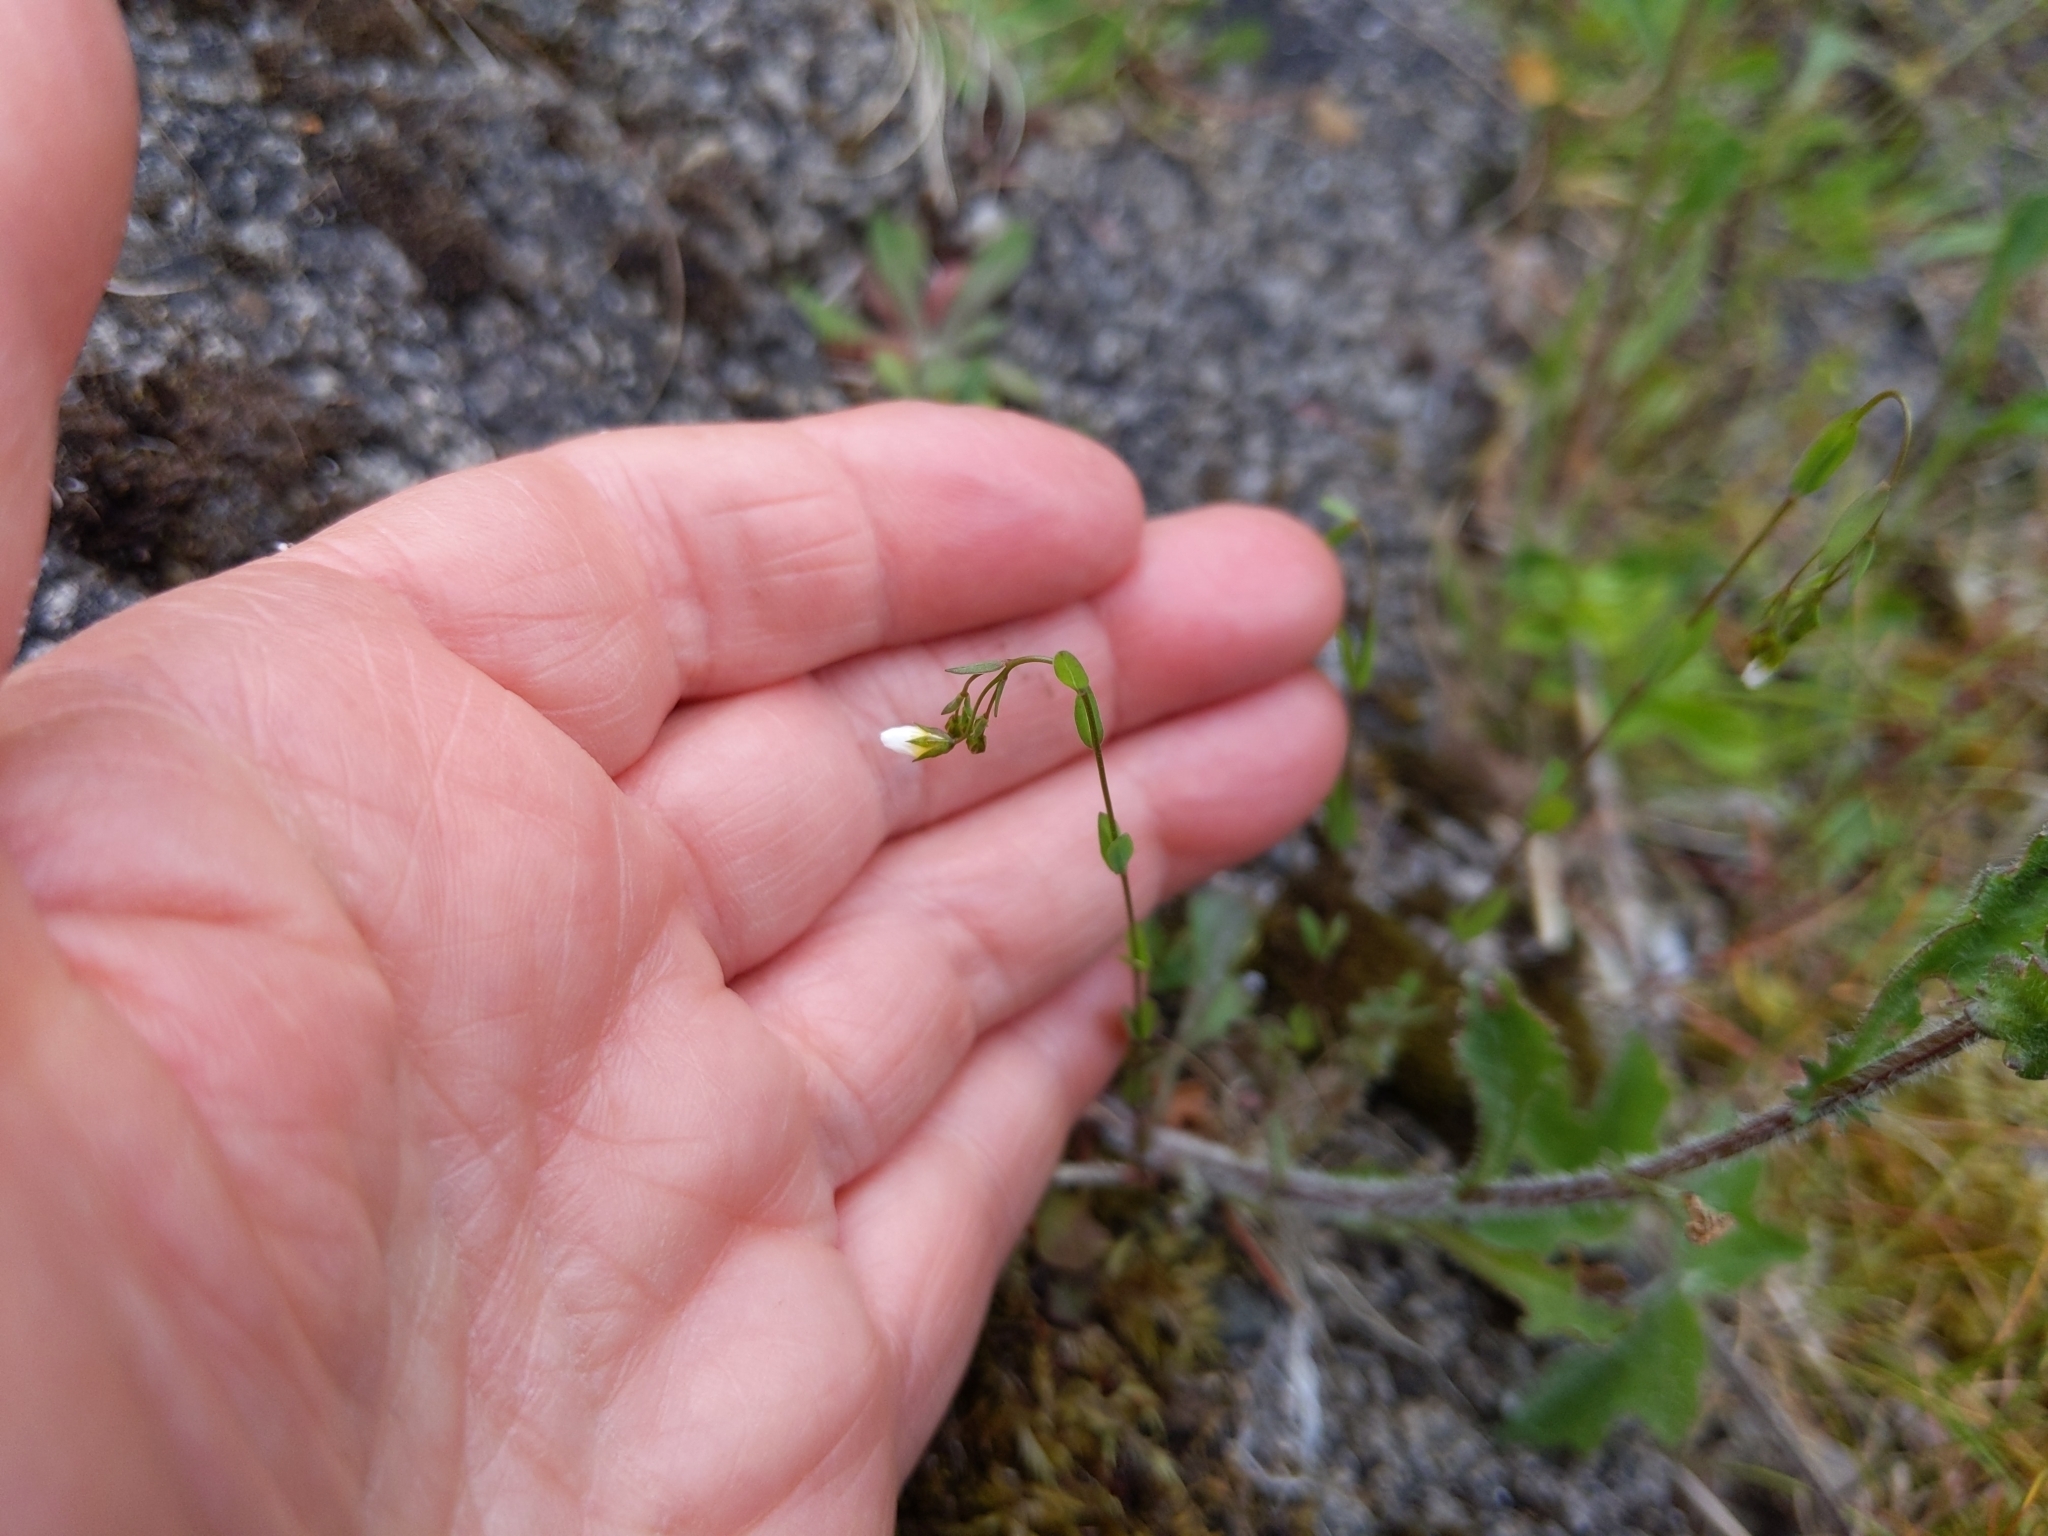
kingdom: Plantae
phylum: Tracheophyta
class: Magnoliopsida
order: Malpighiales
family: Linaceae
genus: Linum
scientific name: Linum catharticum
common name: Fairy flax
